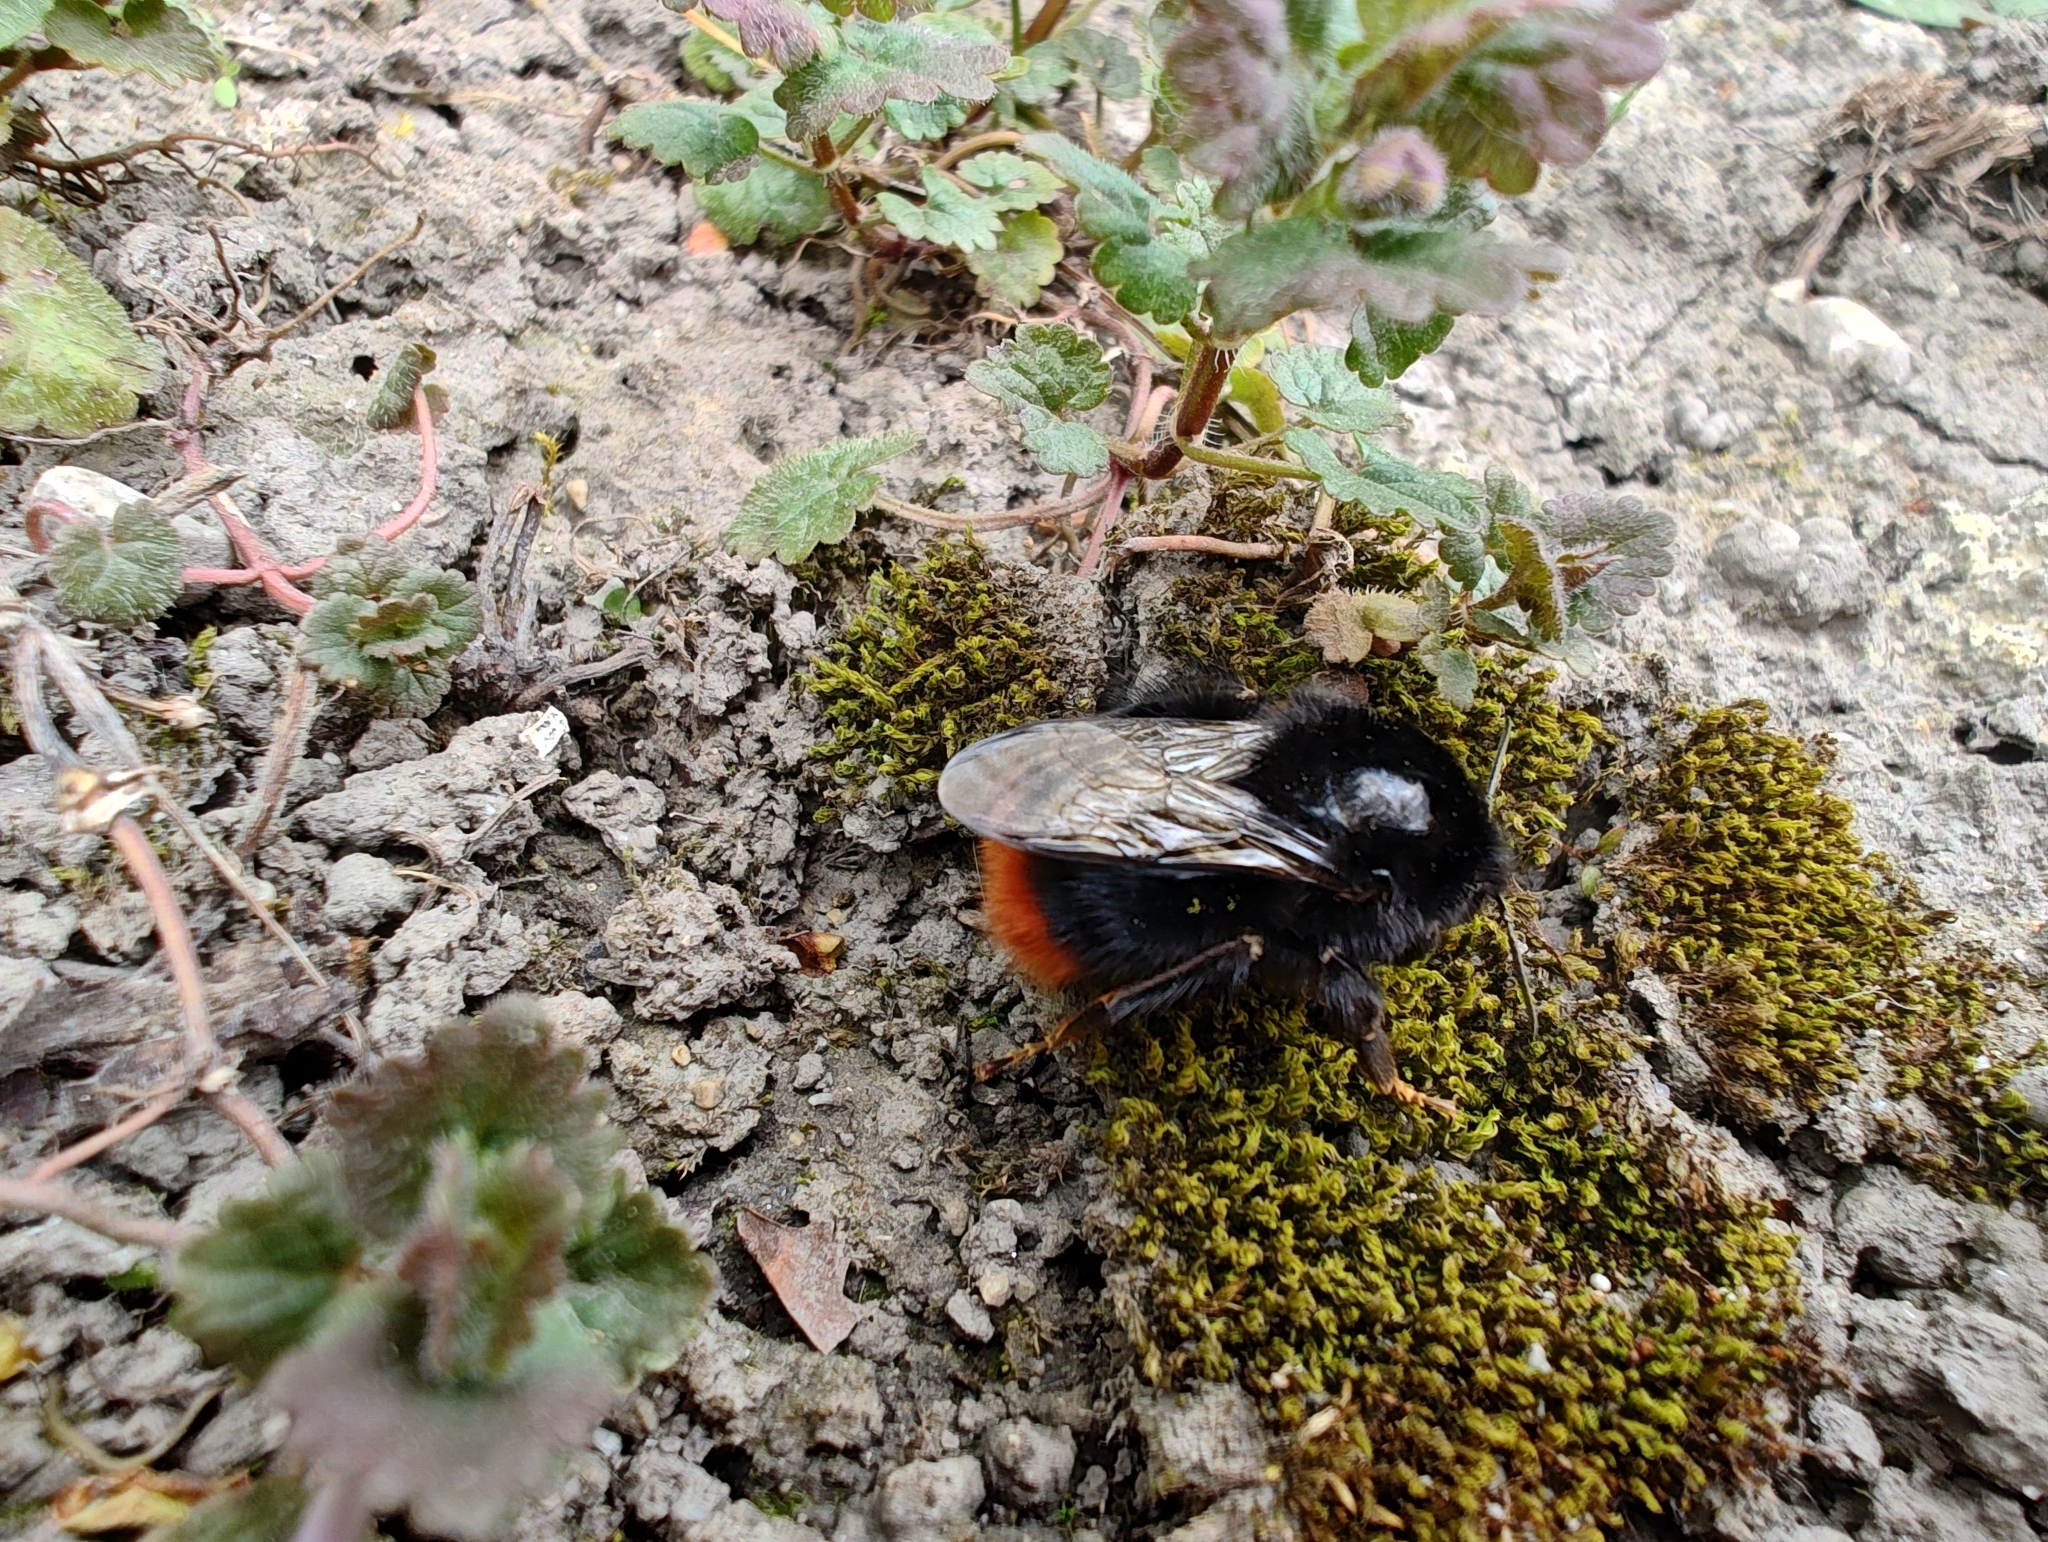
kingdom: Animalia
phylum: Arthropoda
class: Insecta
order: Hymenoptera
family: Apidae
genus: Bombus
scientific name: Bombus lapidarius
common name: Large red-tailed humble-bee
